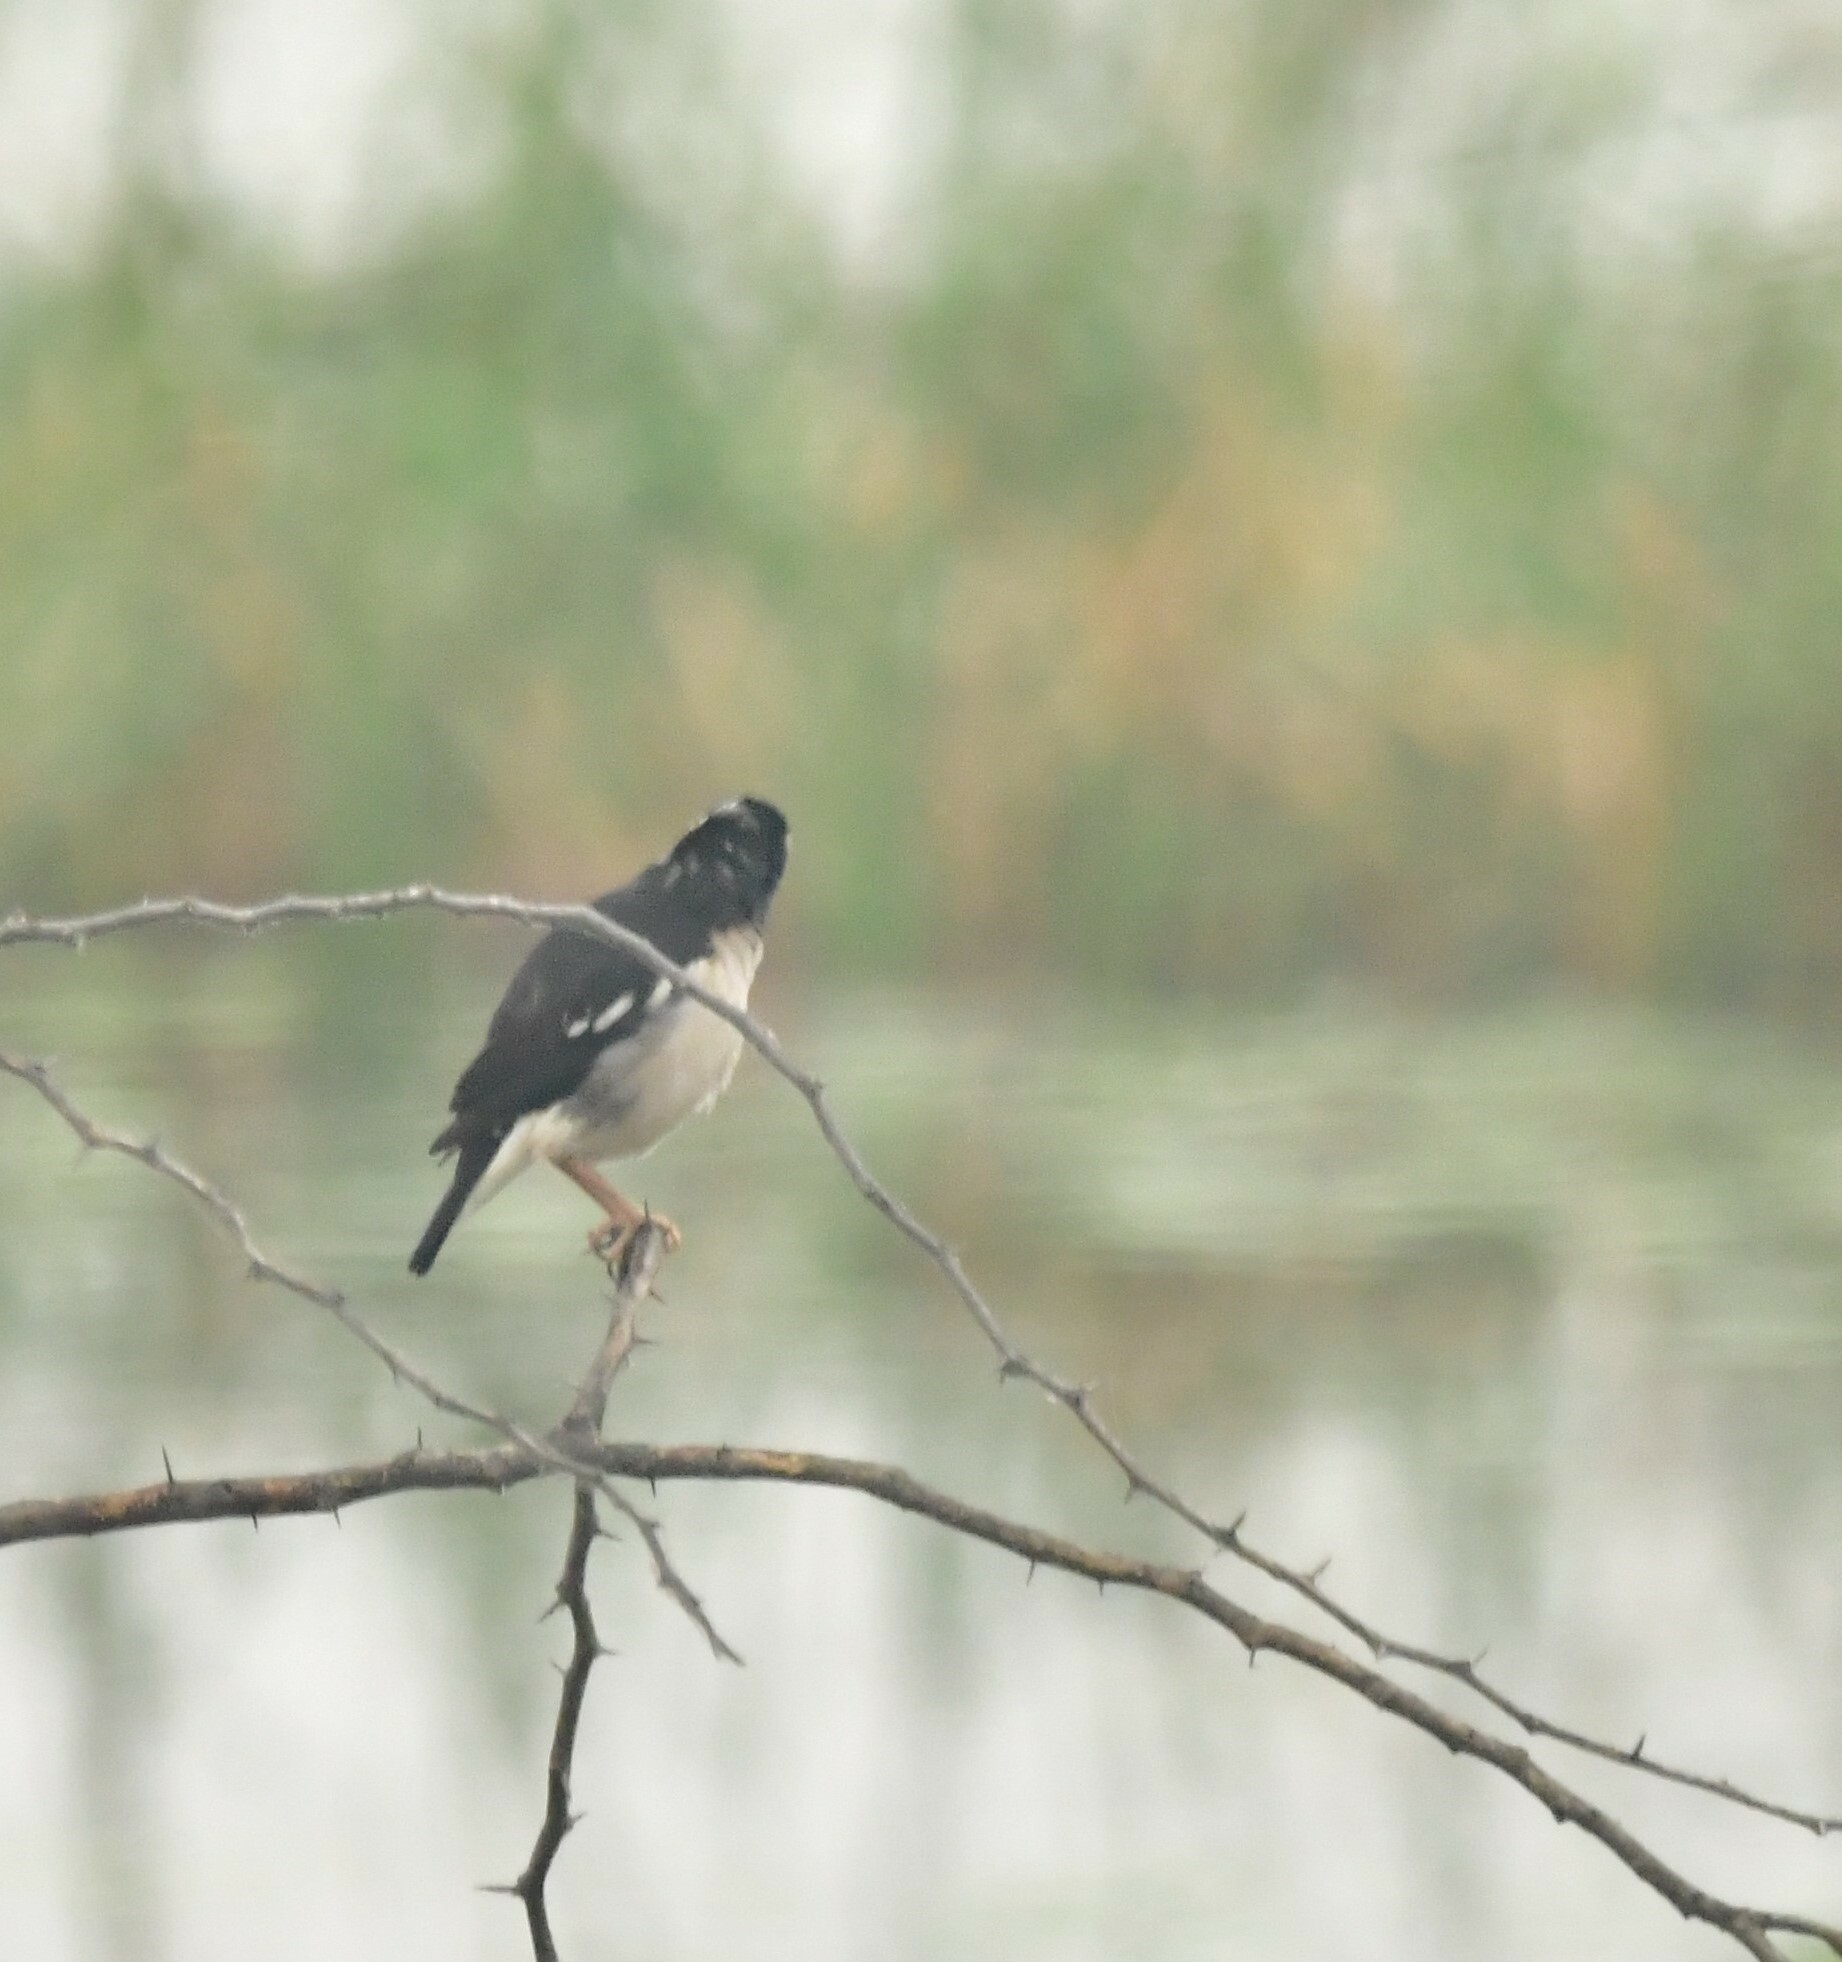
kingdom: Animalia
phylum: Chordata
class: Aves
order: Passeriformes
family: Sturnidae
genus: Gracupica
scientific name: Gracupica contra
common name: Pied myna
